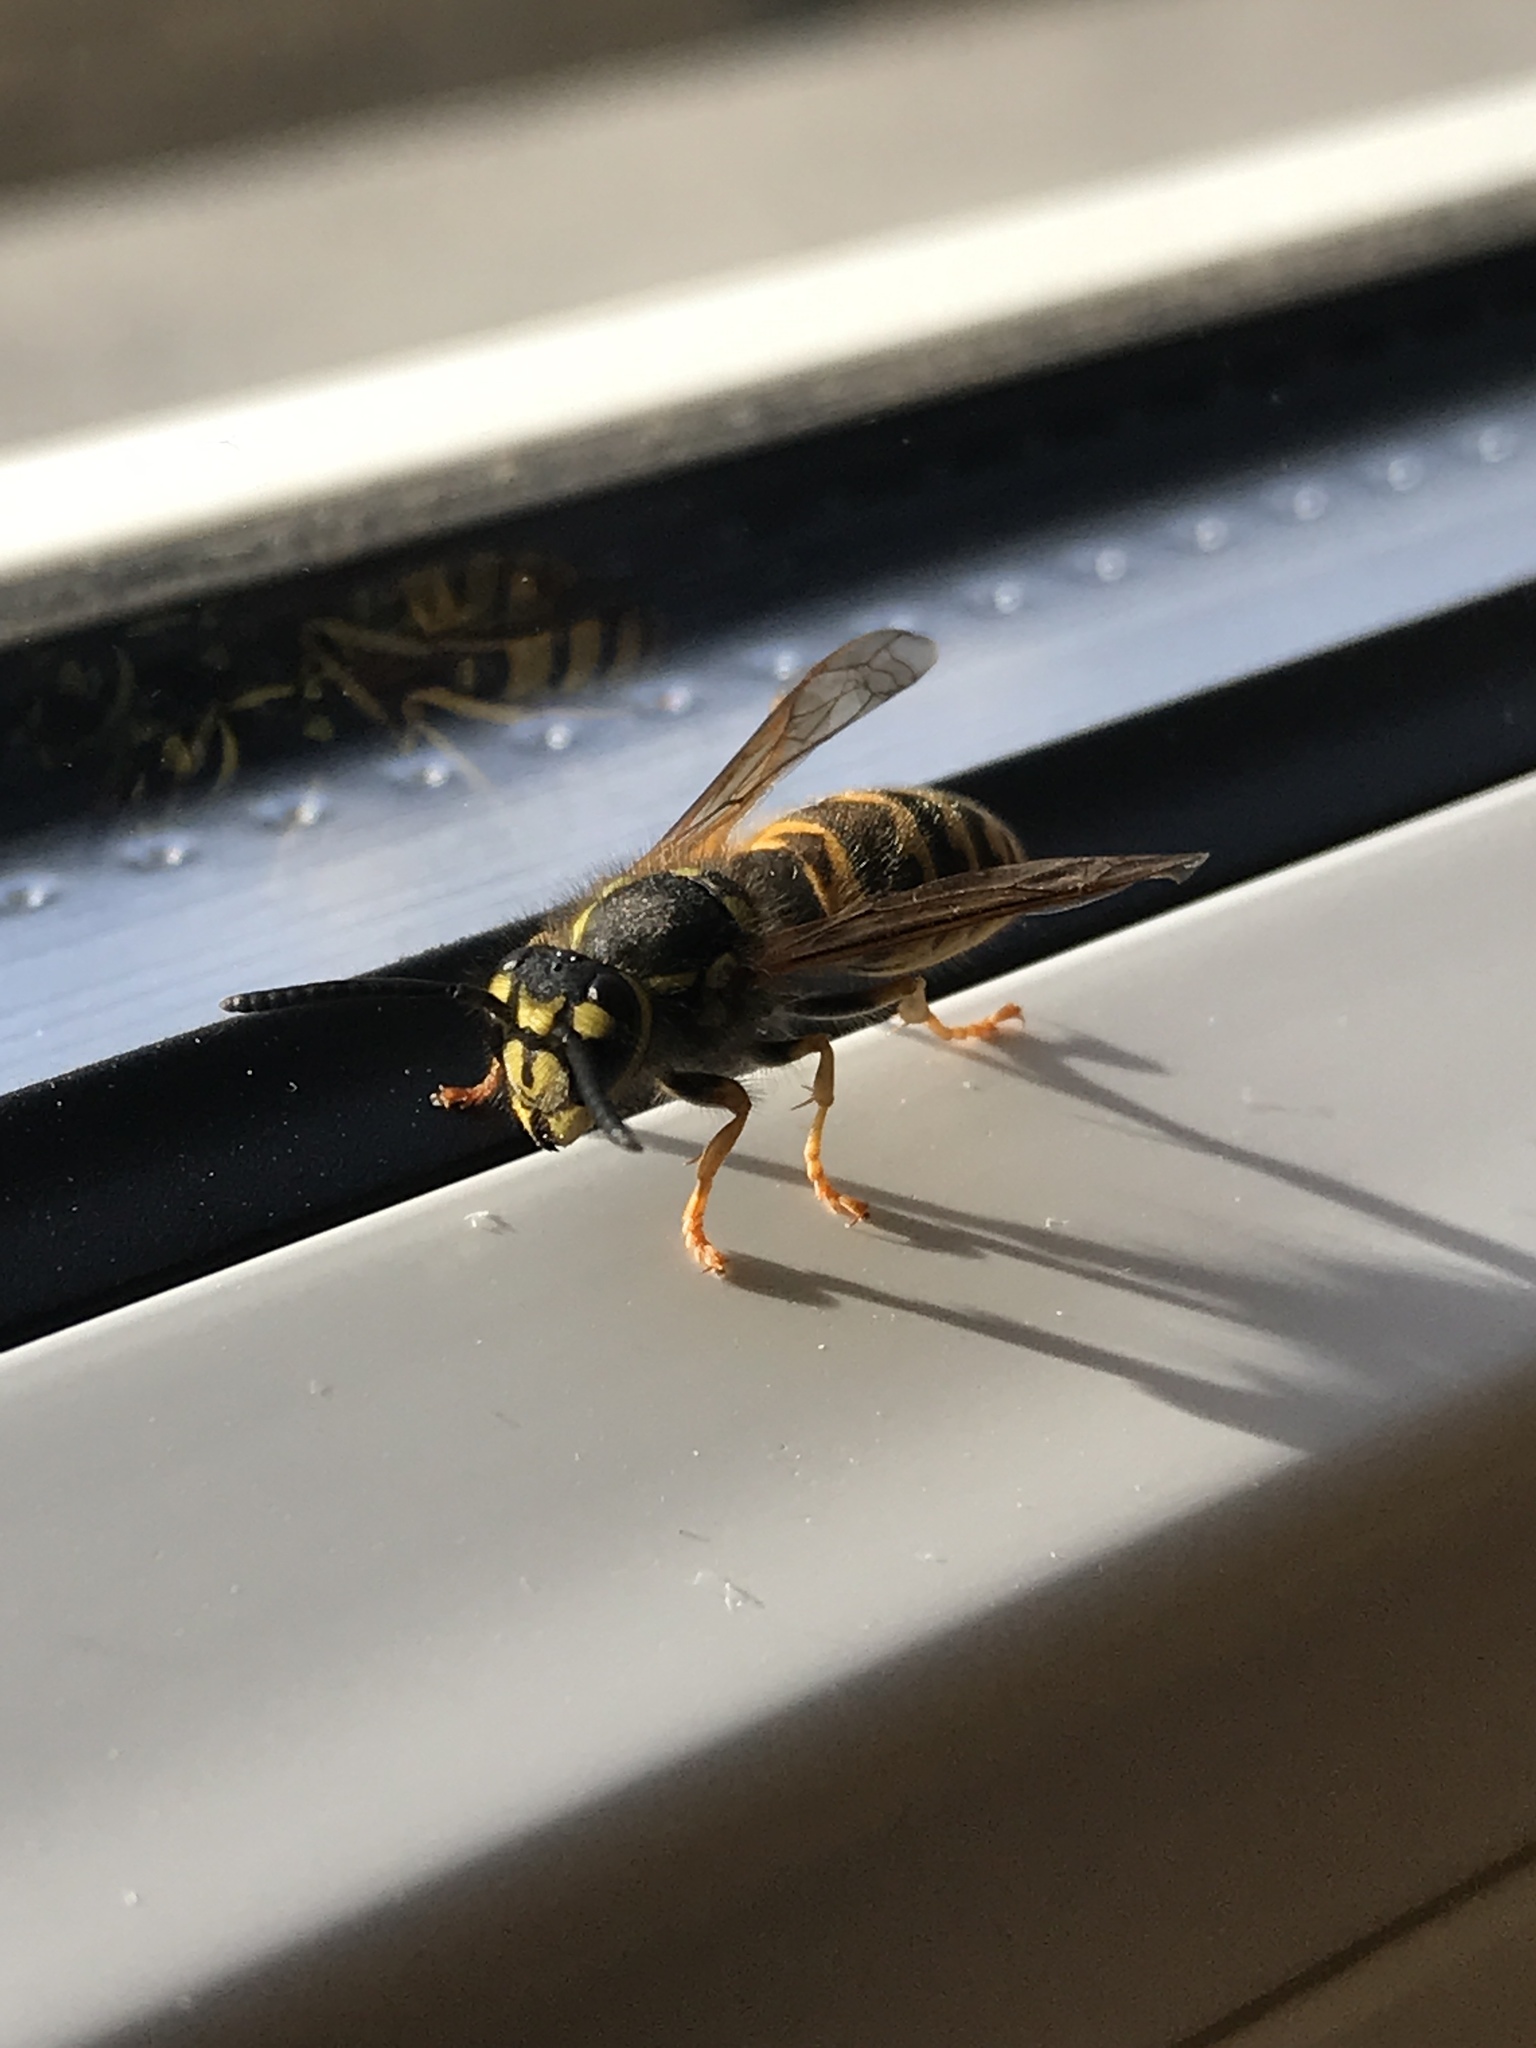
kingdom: Animalia
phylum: Arthropoda
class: Insecta
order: Hymenoptera
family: Vespidae
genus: Vespula
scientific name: Vespula vulgaris
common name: Common wasp
